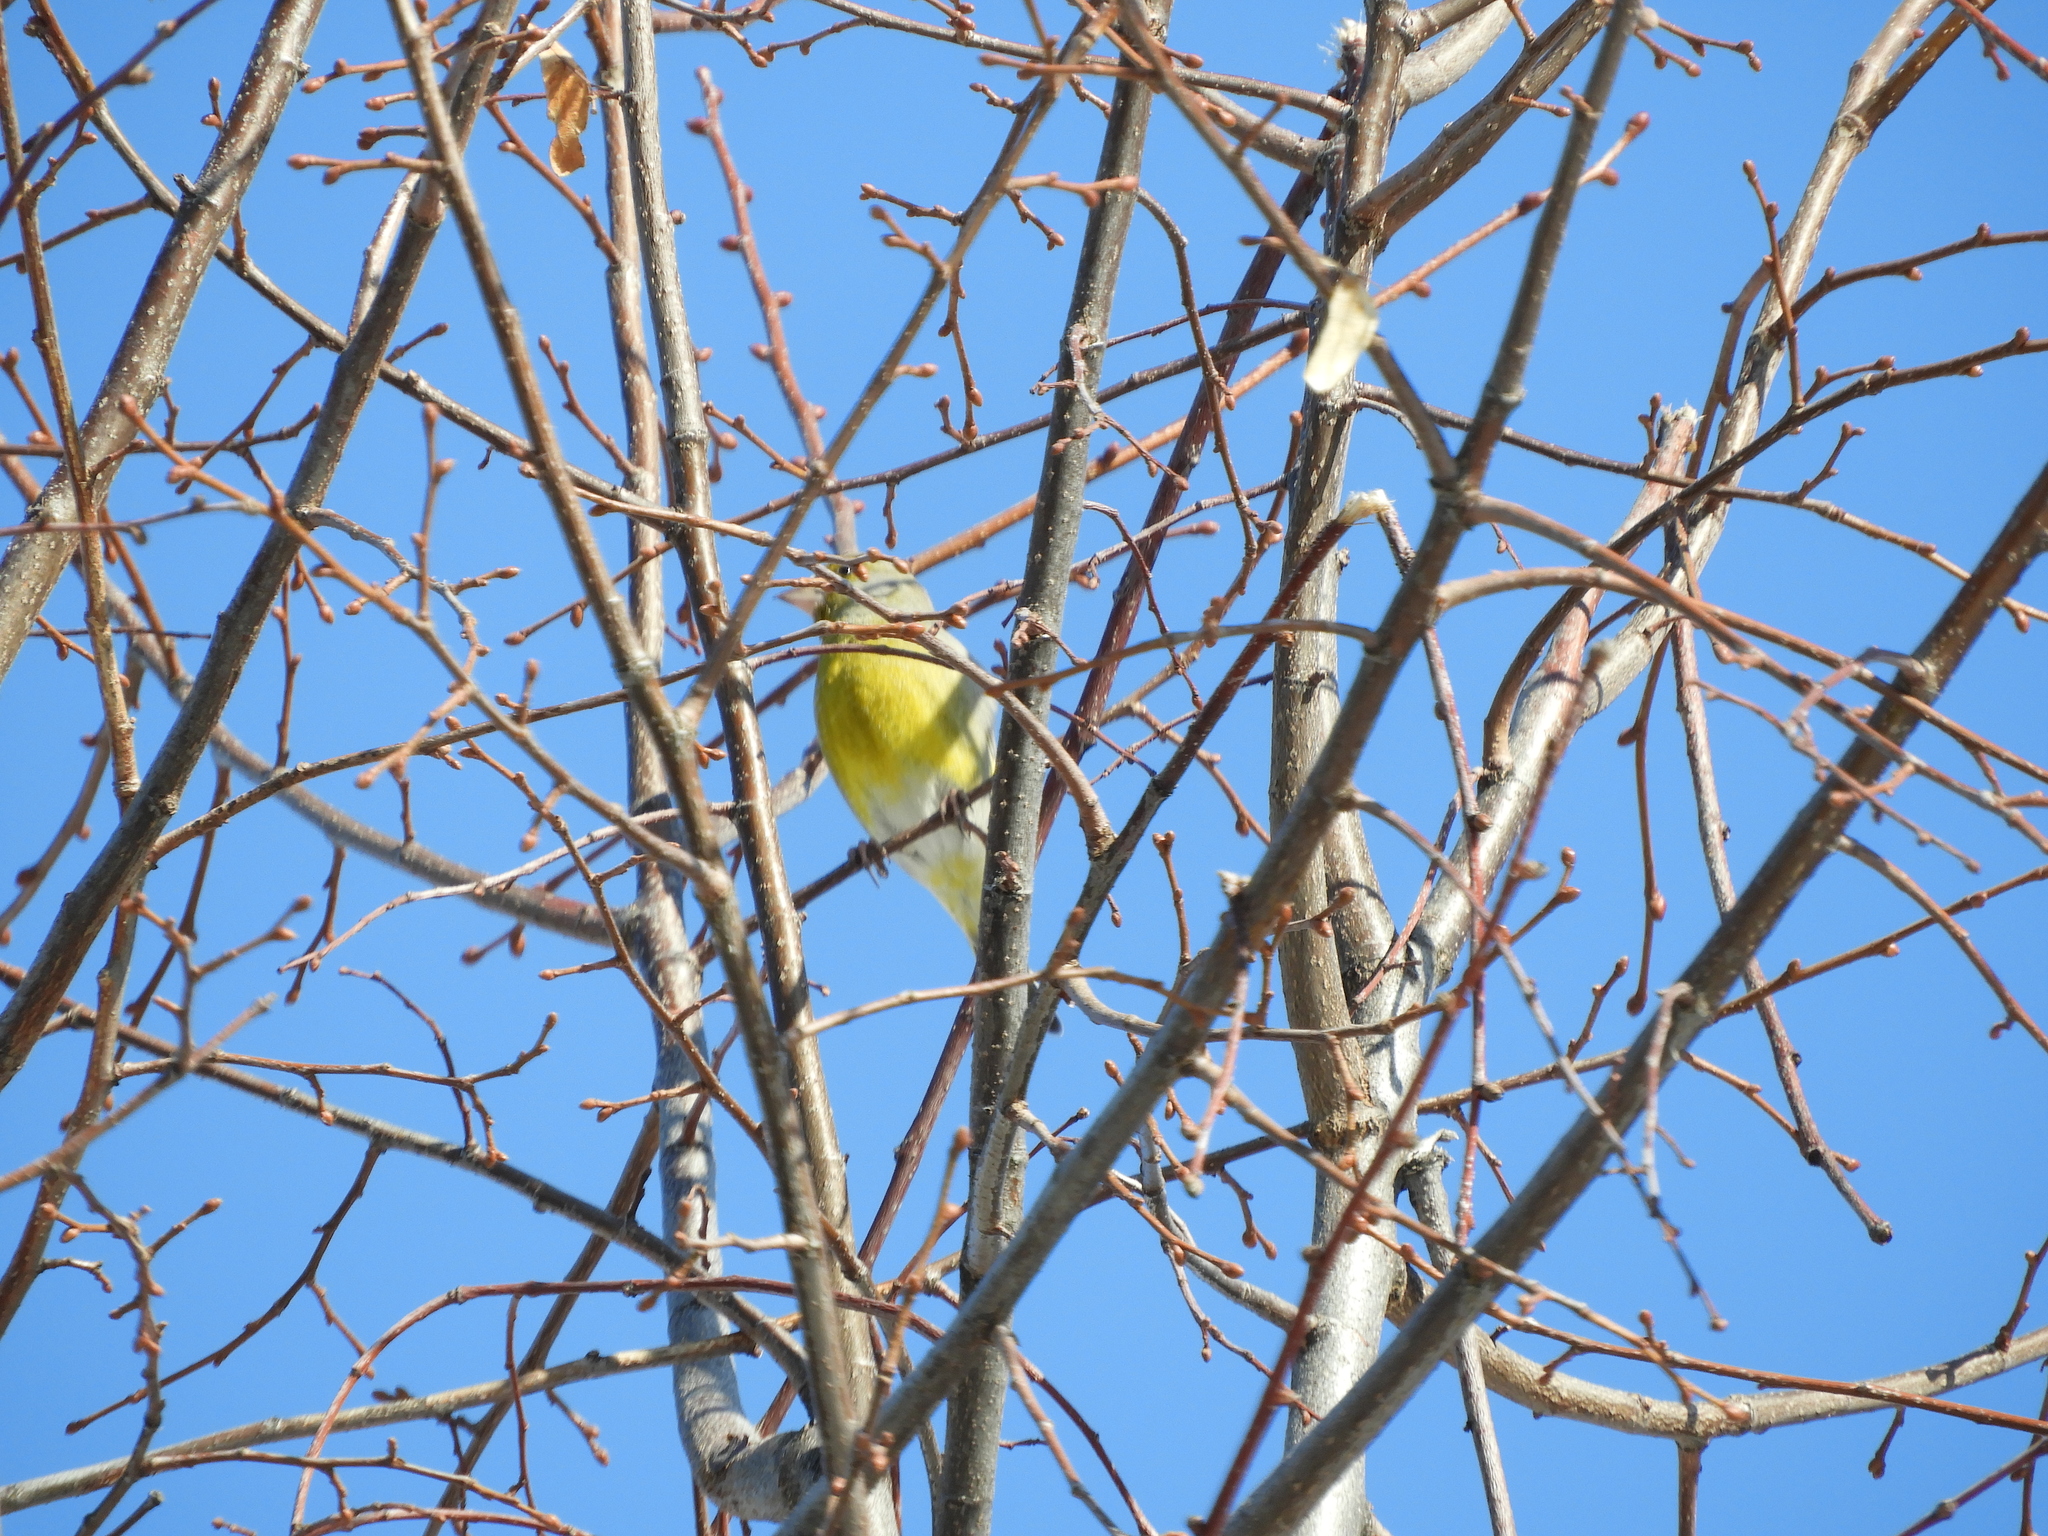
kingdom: Plantae
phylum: Tracheophyta
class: Liliopsida
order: Poales
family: Poaceae
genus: Chloris
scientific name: Chloris chloris
